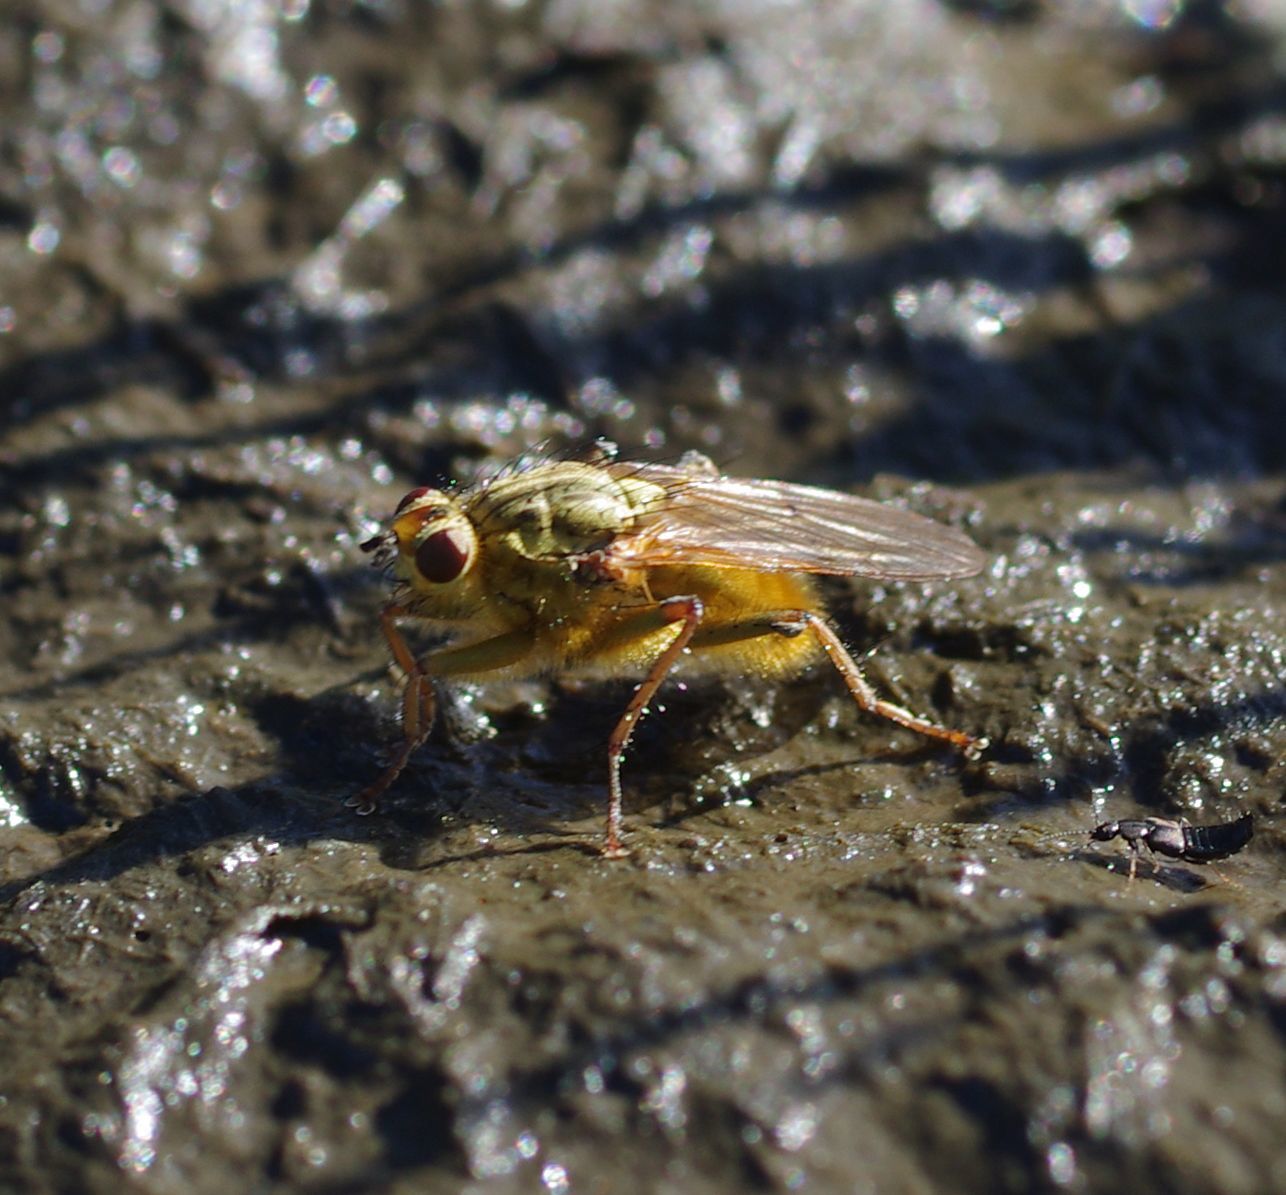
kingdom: Animalia
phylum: Arthropoda
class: Insecta
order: Diptera
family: Scathophagidae
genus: Scathophaga
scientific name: Scathophaga stercoraria
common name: Yellow dung fly
